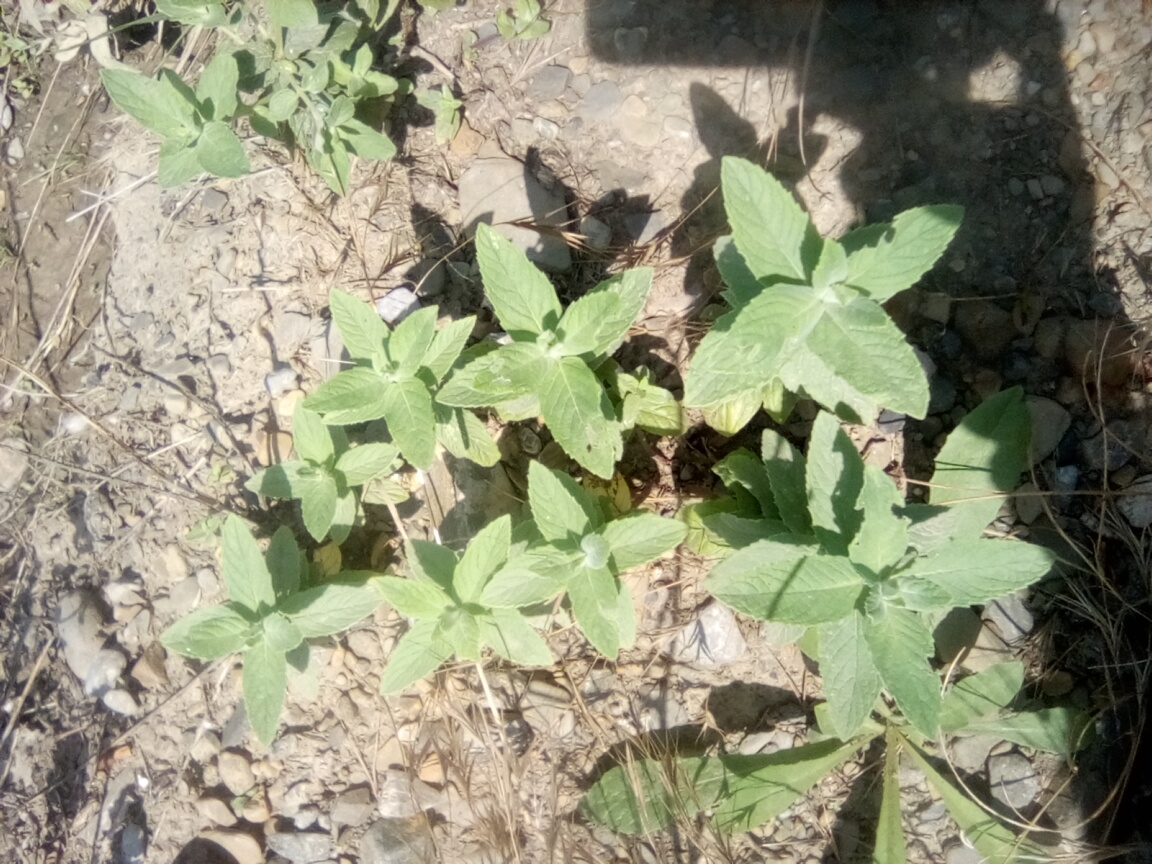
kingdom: Plantae
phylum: Tracheophyta
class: Magnoliopsida
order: Lamiales
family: Lamiaceae
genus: Mentha
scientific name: Mentha longifolia
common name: Horse mint
